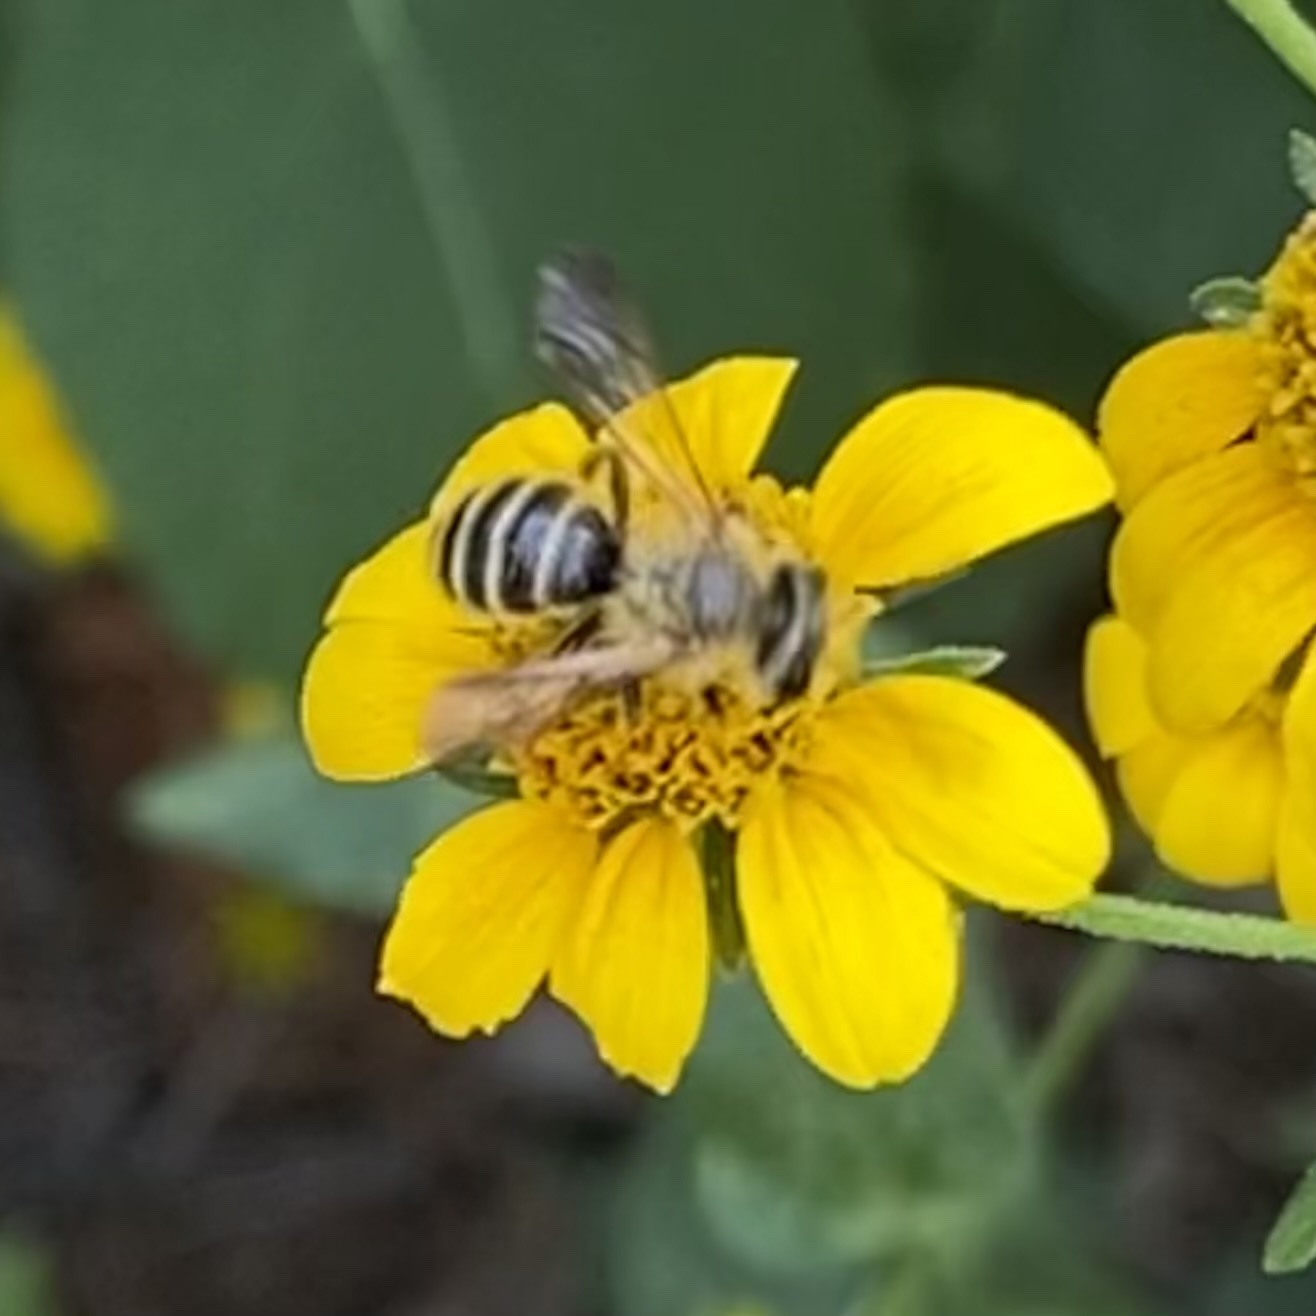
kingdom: Animalia
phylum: Arthropoda
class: Insecta
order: Hymenoptera
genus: Callandrena
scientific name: Callandrena
